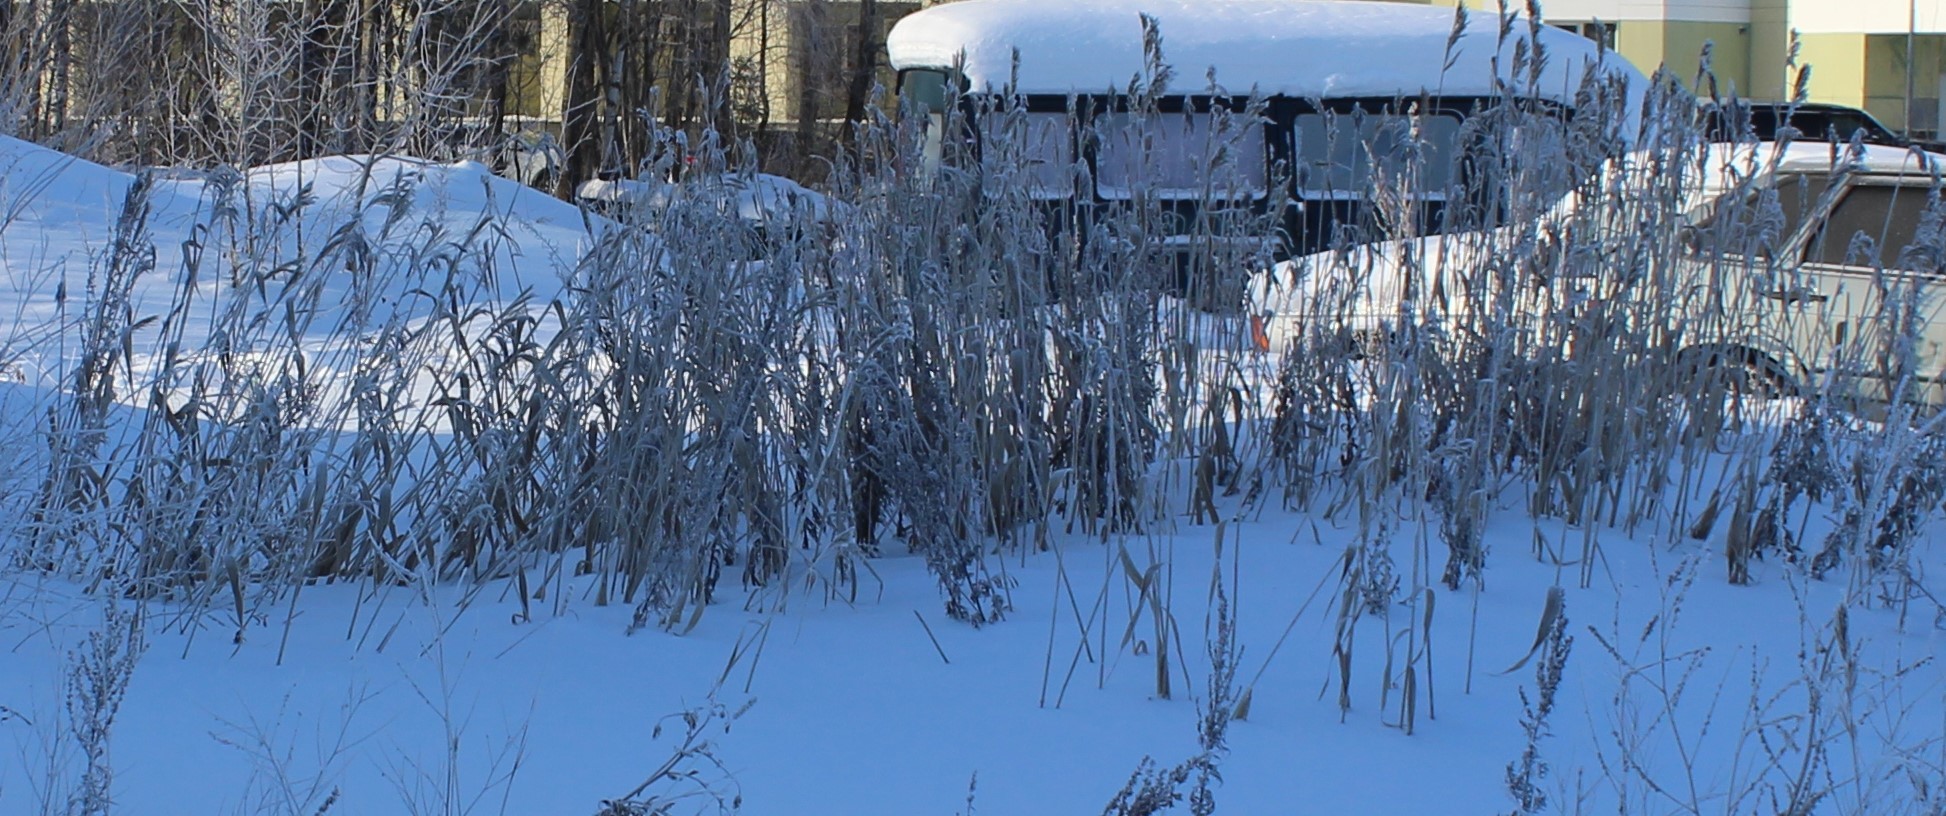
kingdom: Plantae
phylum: Tracheophyta
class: Liliopsida
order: Poales
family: Poaceae
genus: Phragmites
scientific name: Phragmites australis
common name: Common reed
